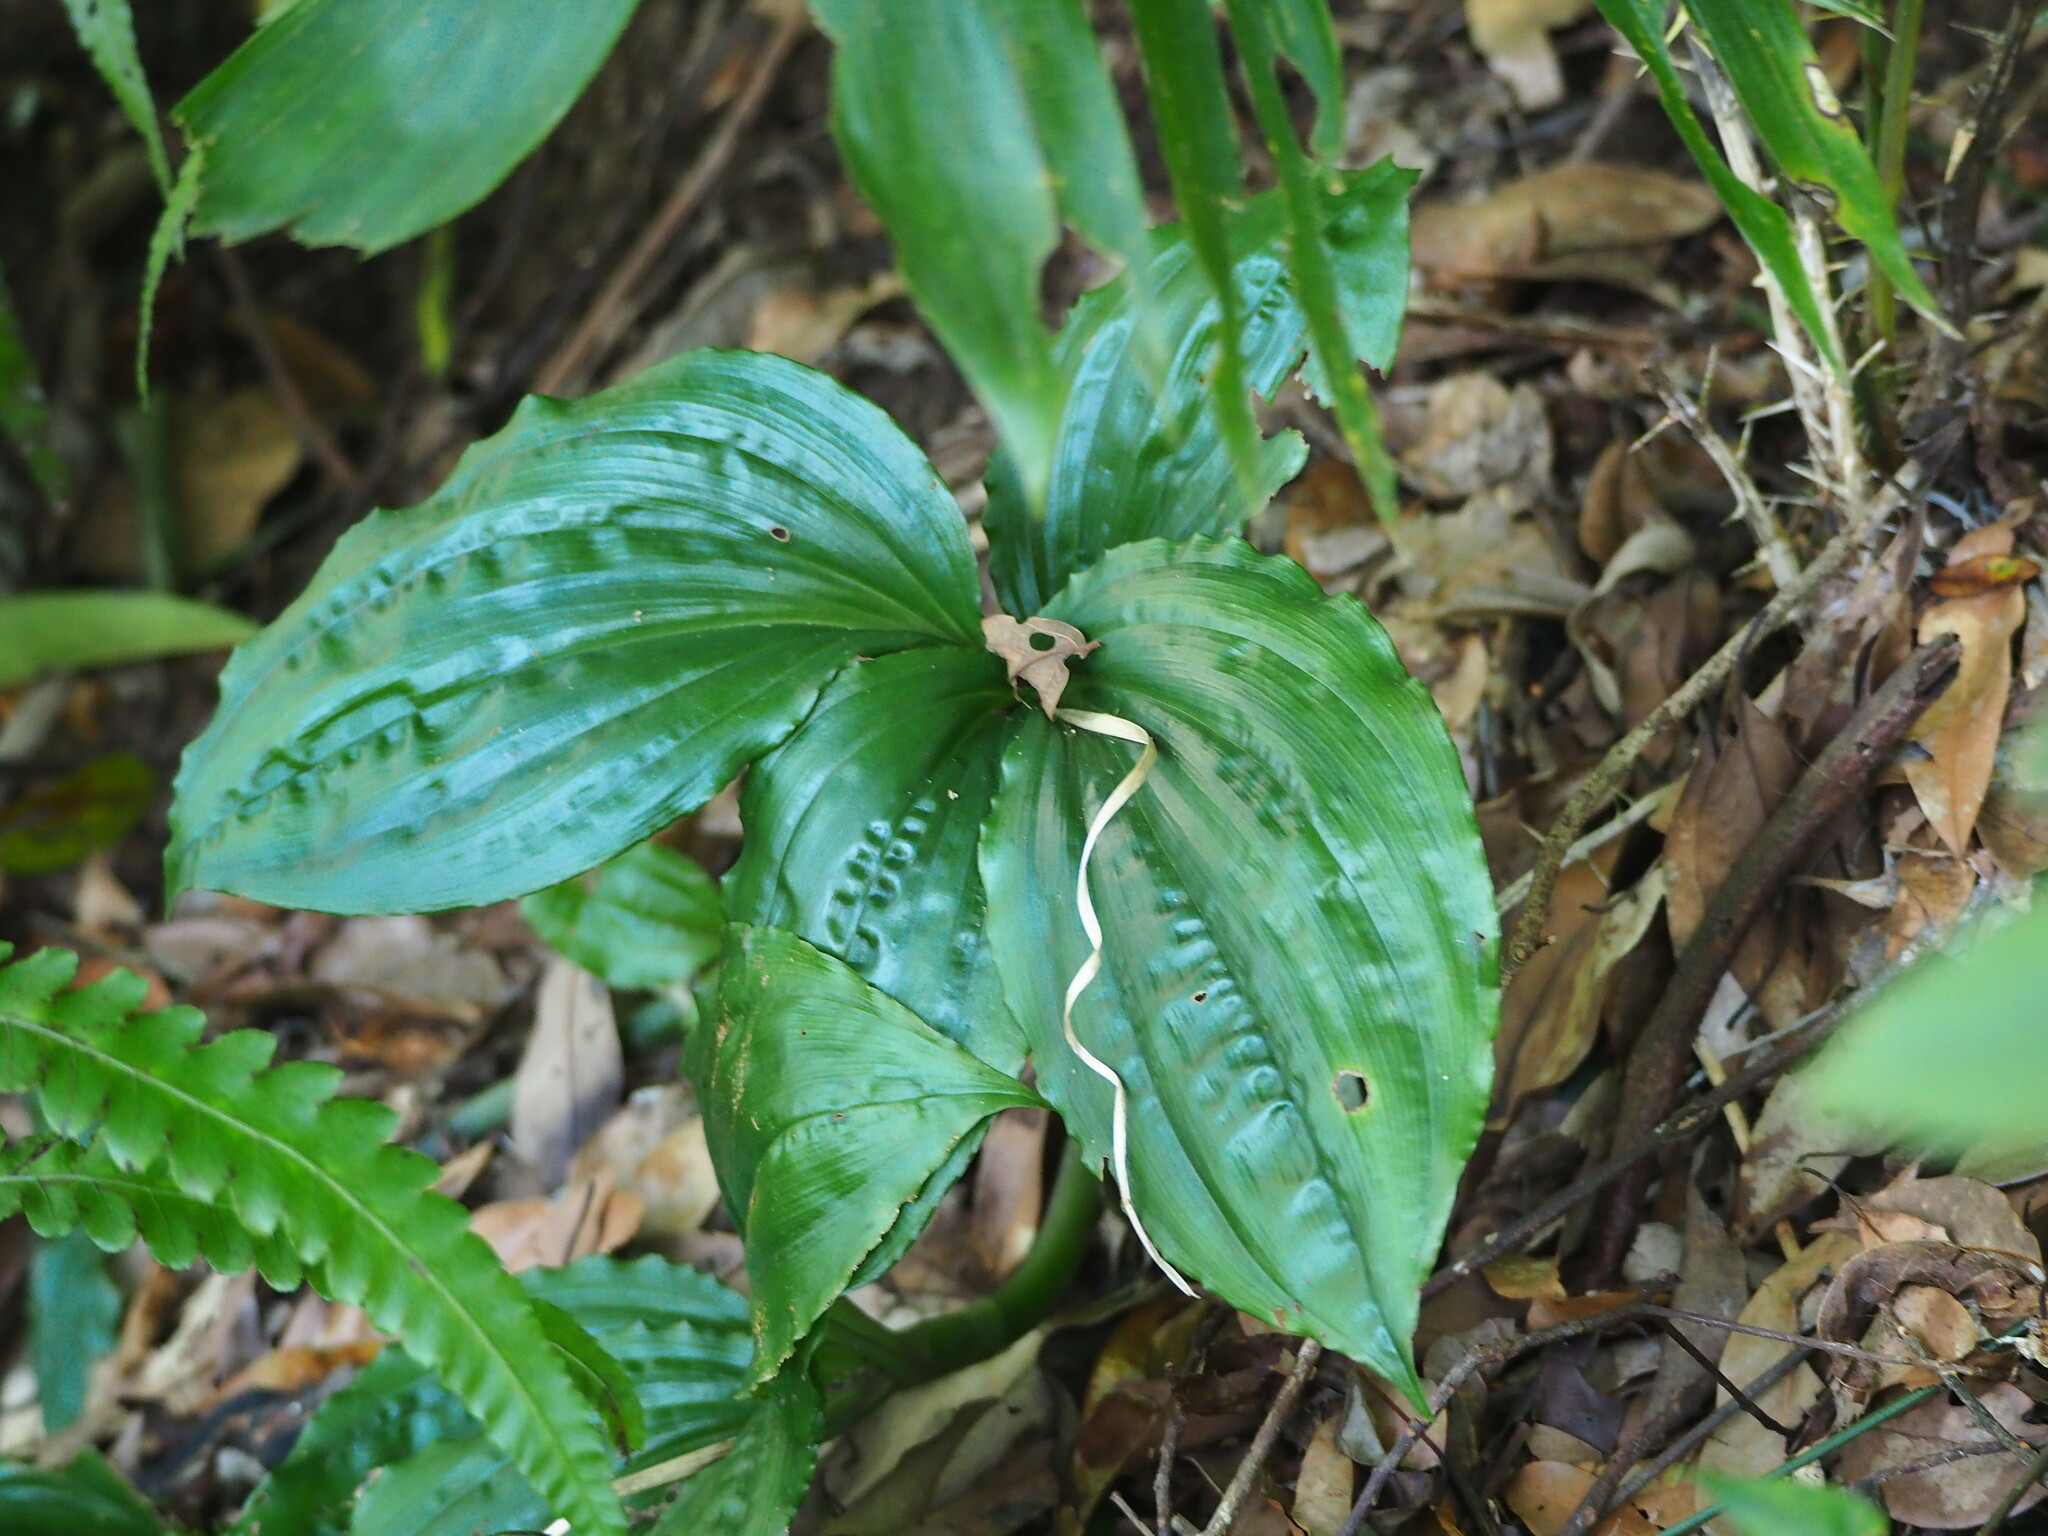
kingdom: Plantae
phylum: Tracheophyta
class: Liliopsida
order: Asparagales
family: Orchidaceae
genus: Liparis
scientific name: Liparis gigantea
